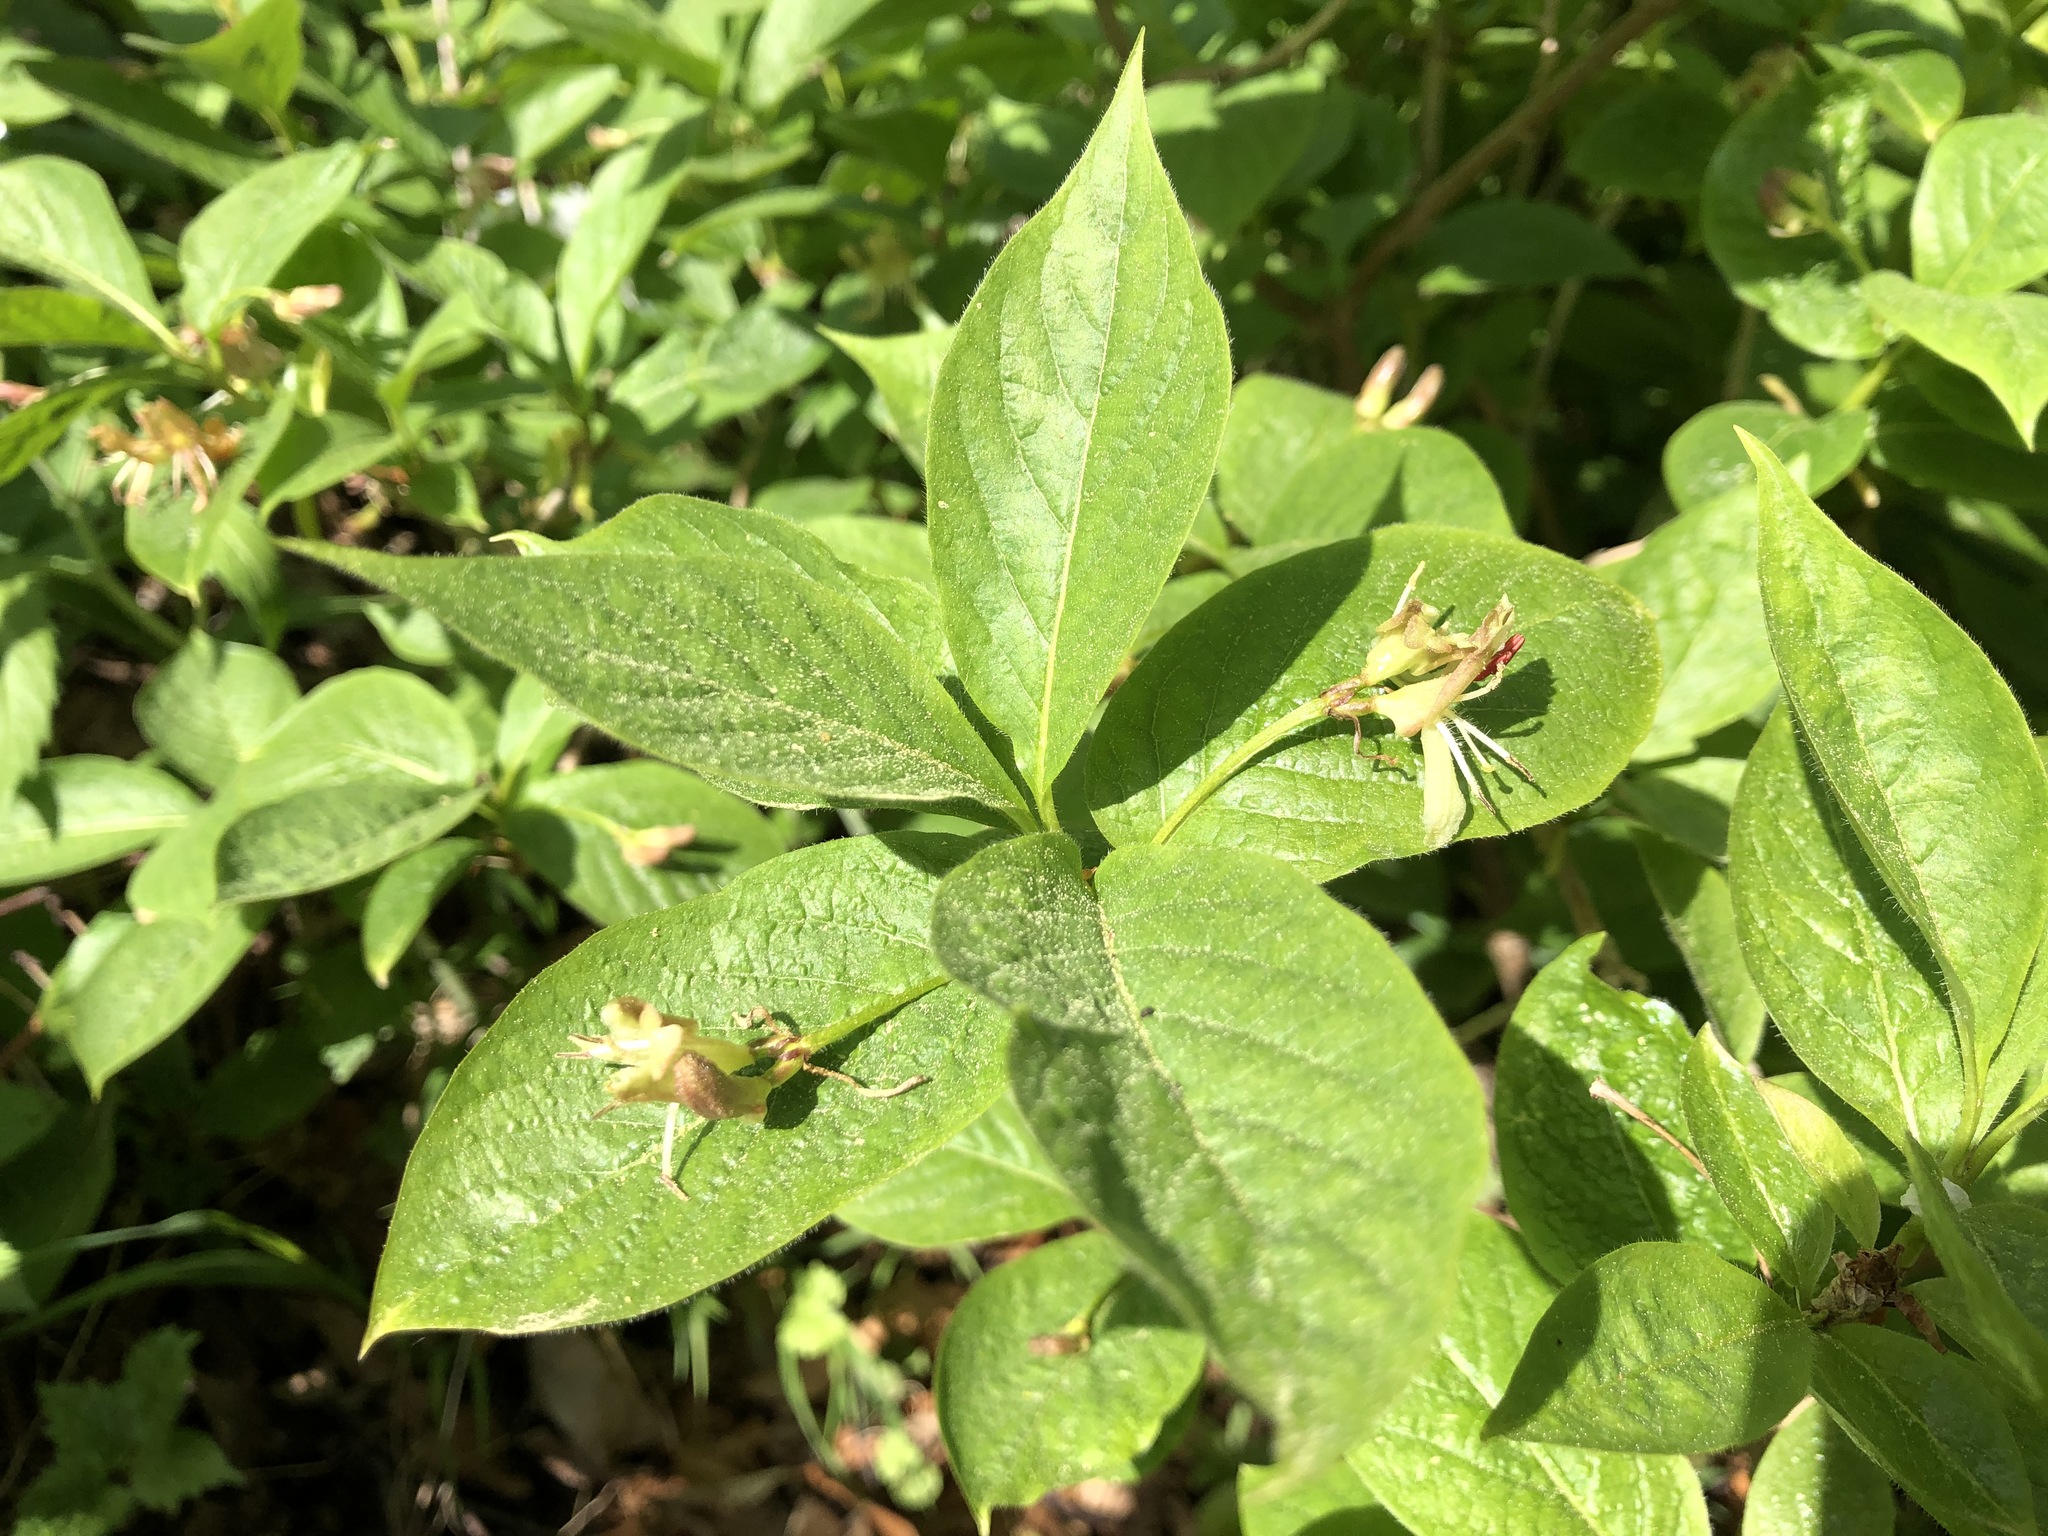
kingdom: Plantae
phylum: Tracheophyta
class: Magnoliopsida
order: Dipsacales
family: Caprifoliaceae
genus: Lonicera
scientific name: Lonicera alpigena
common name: Alpine honeysuckle
